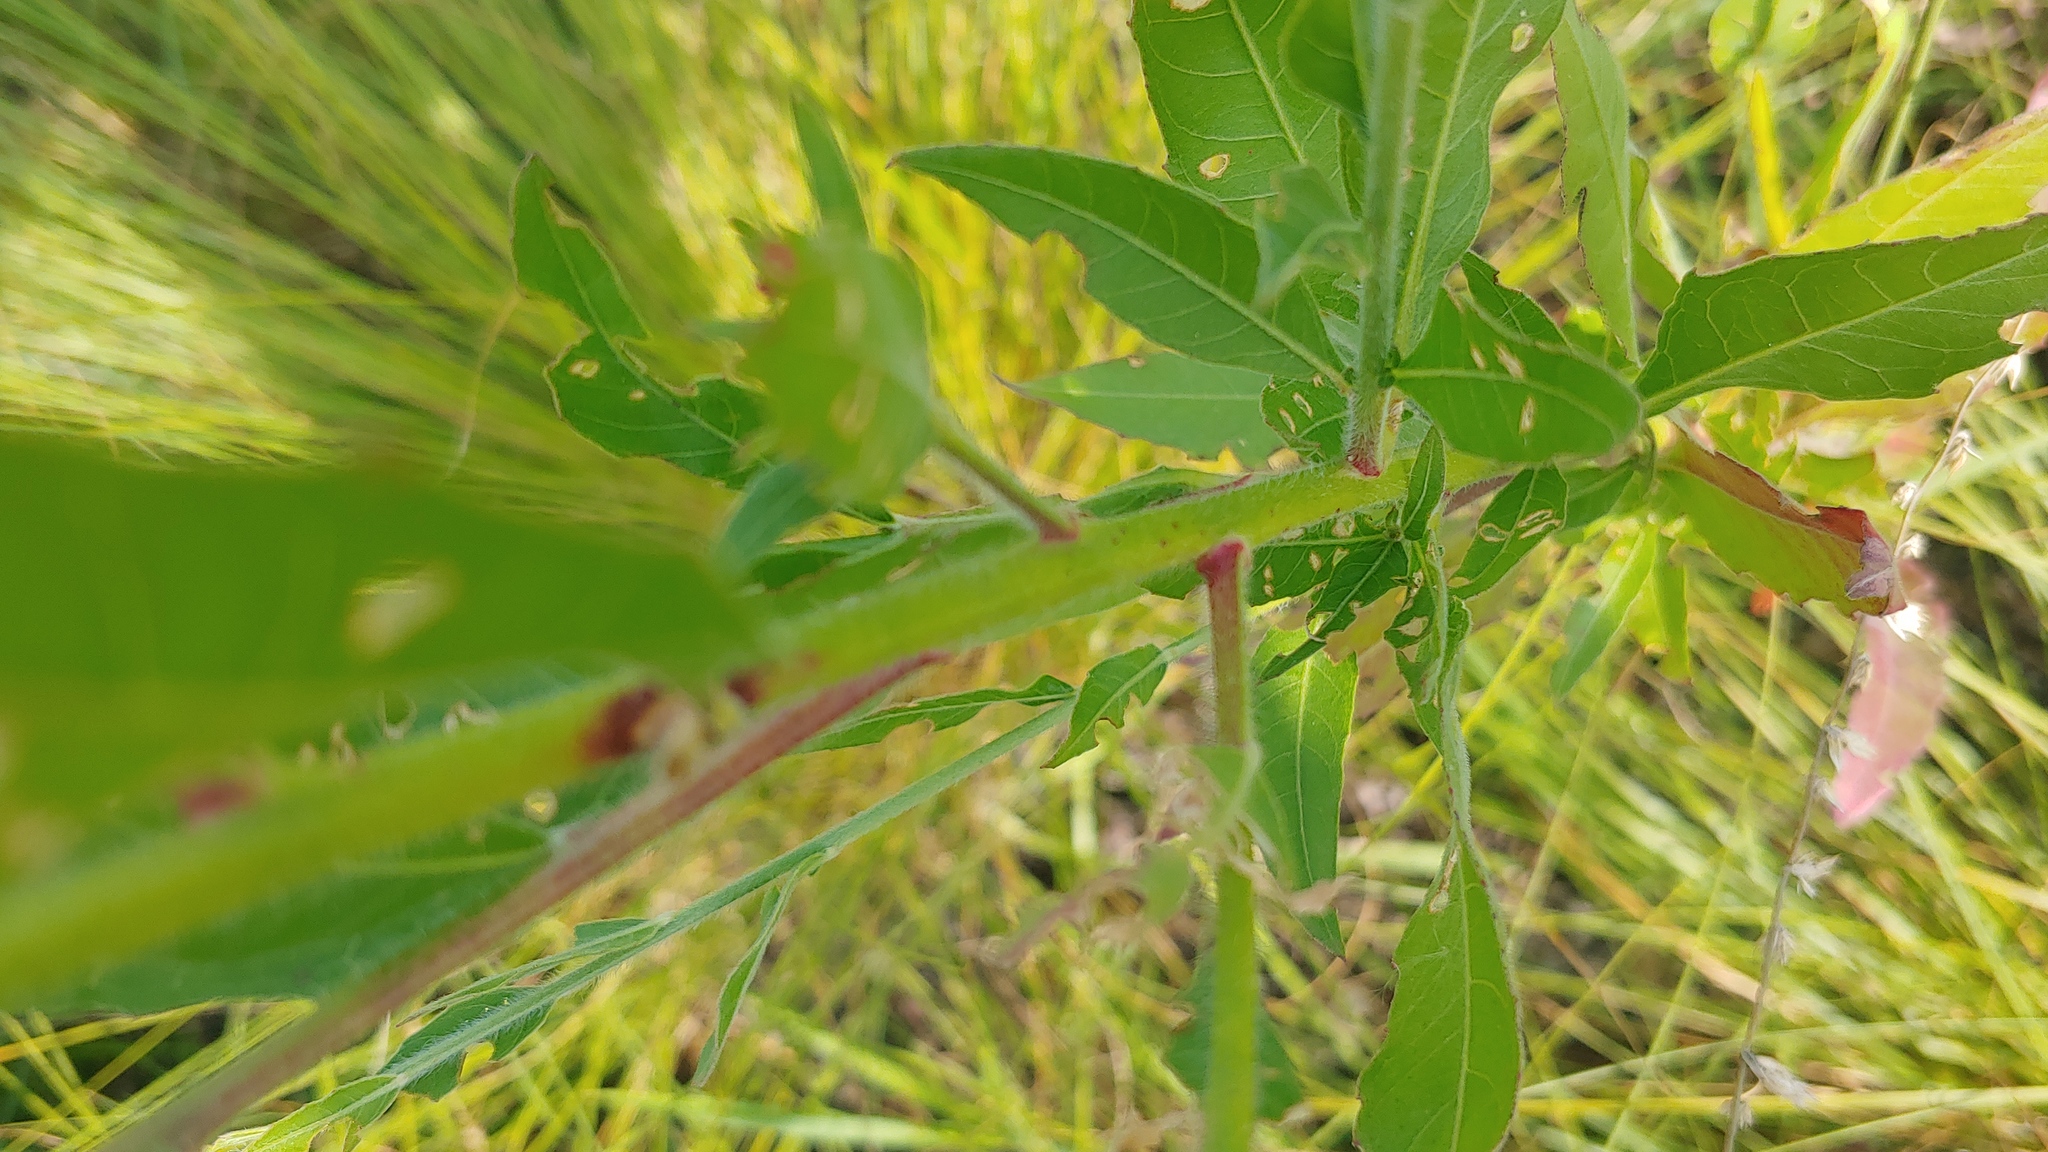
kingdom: Plantae
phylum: Tracheophyta
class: Magnoliopsida
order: Myrtales
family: Onagraceae
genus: Oenothera
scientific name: Oenothera gaura
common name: Biennial beeblossom
